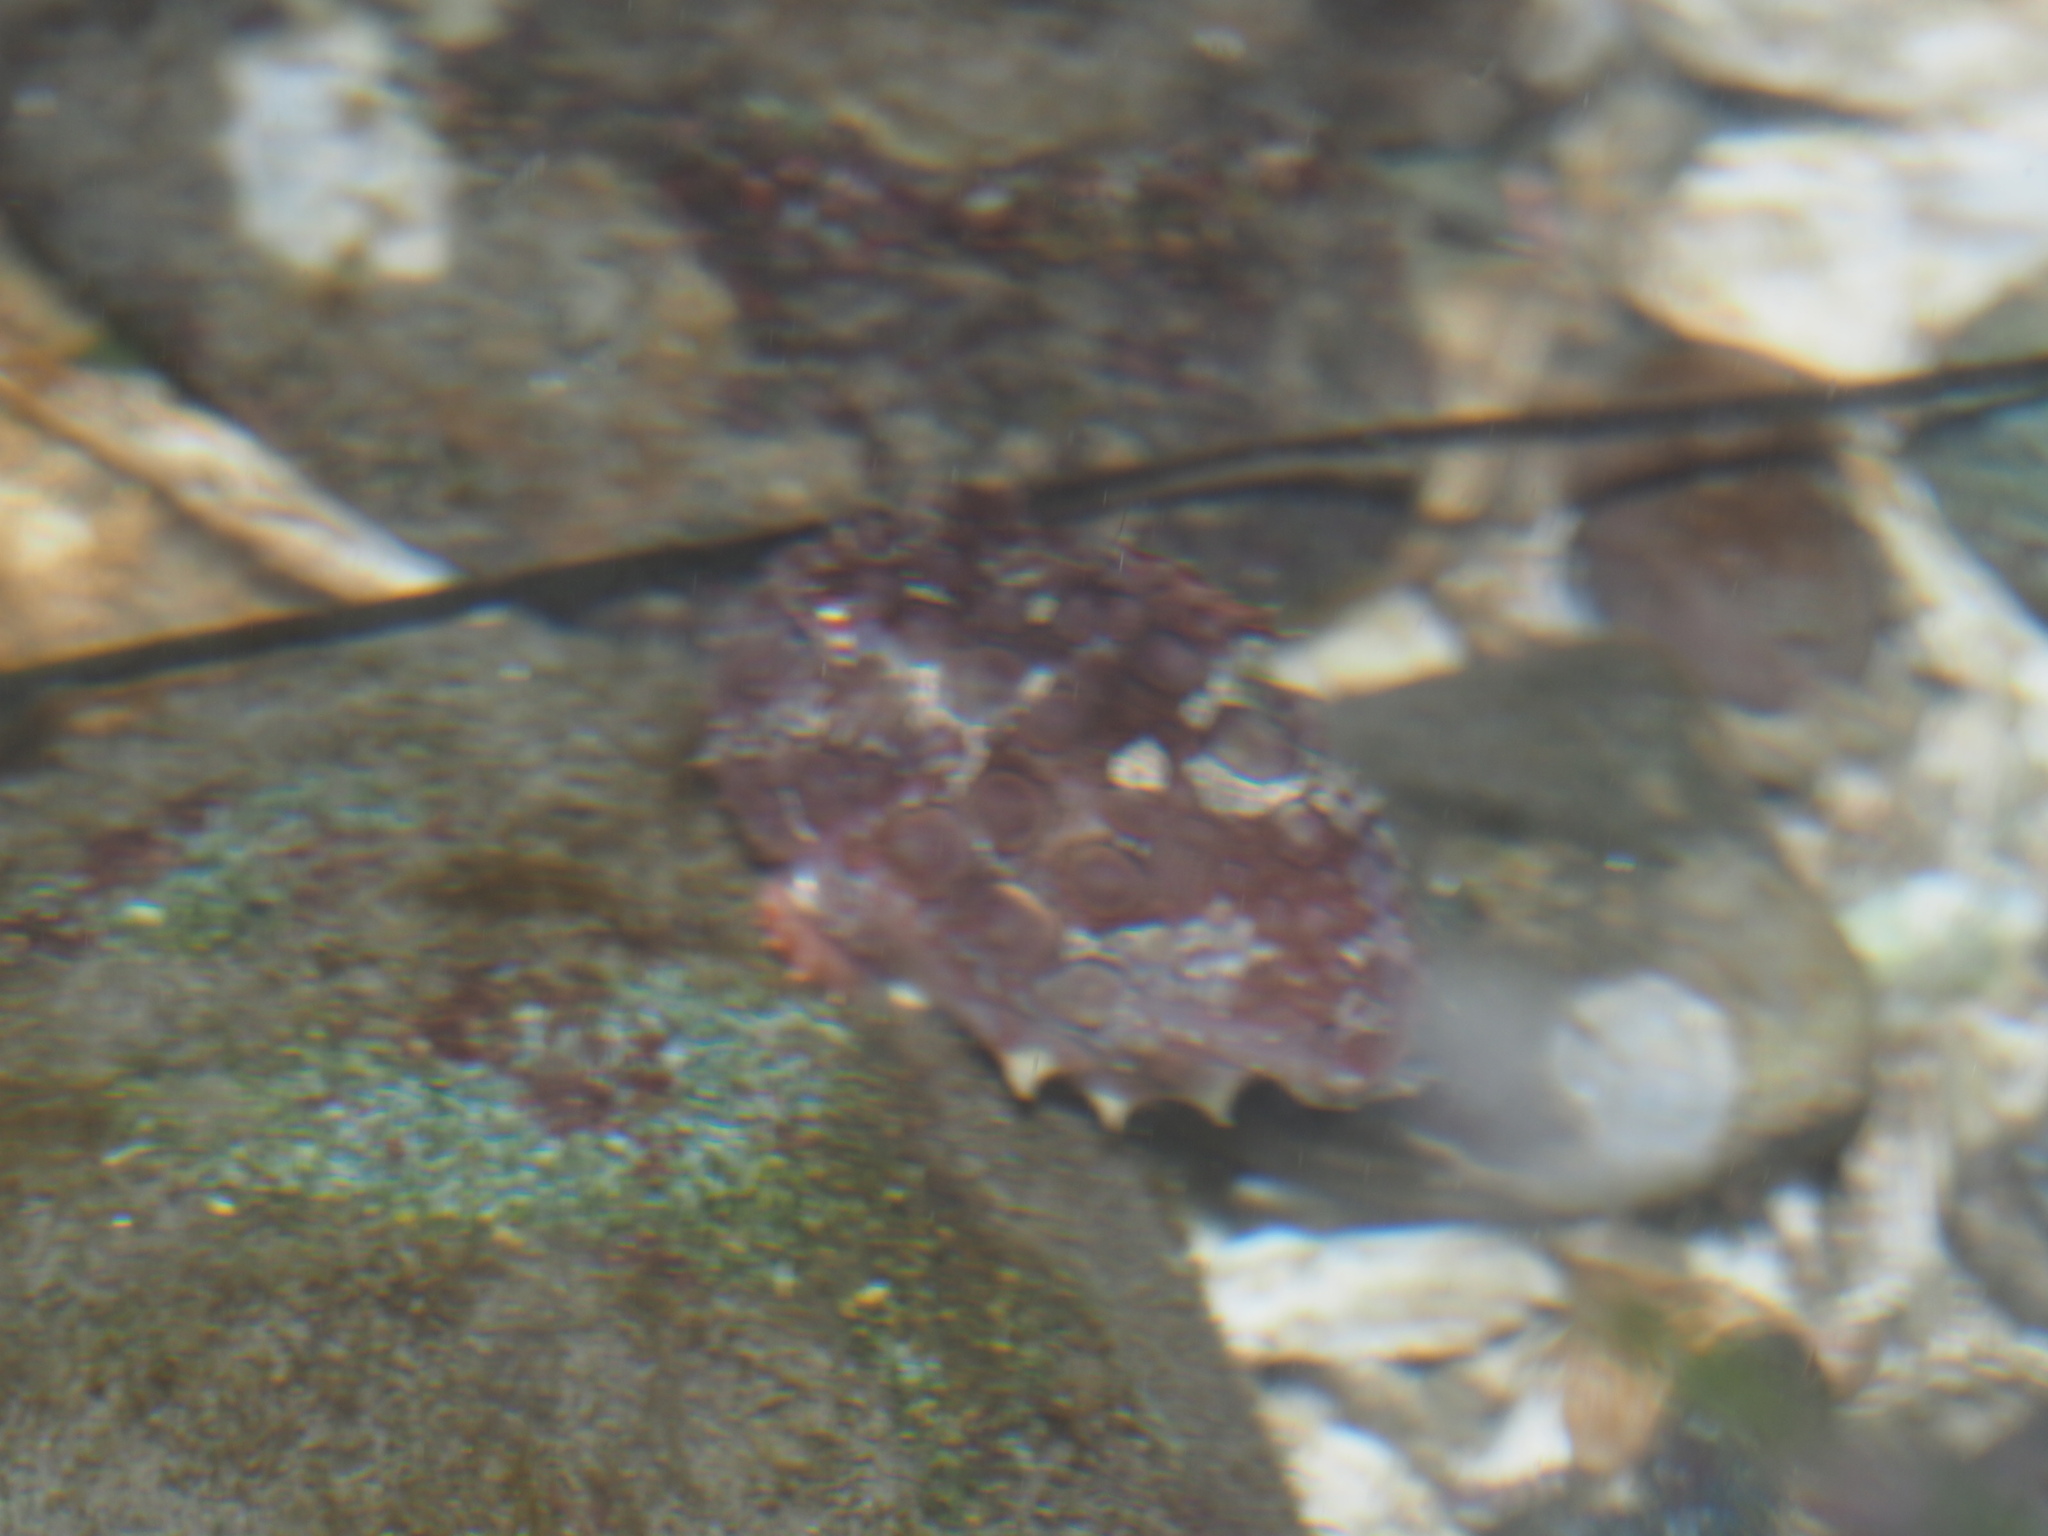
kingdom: Animalia
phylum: Chordata
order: Scorpaeniformes
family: Cyclopteridae
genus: Eumicrotremus
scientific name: Eumicrotremus orbis
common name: Pacific spiny lumpsucker
